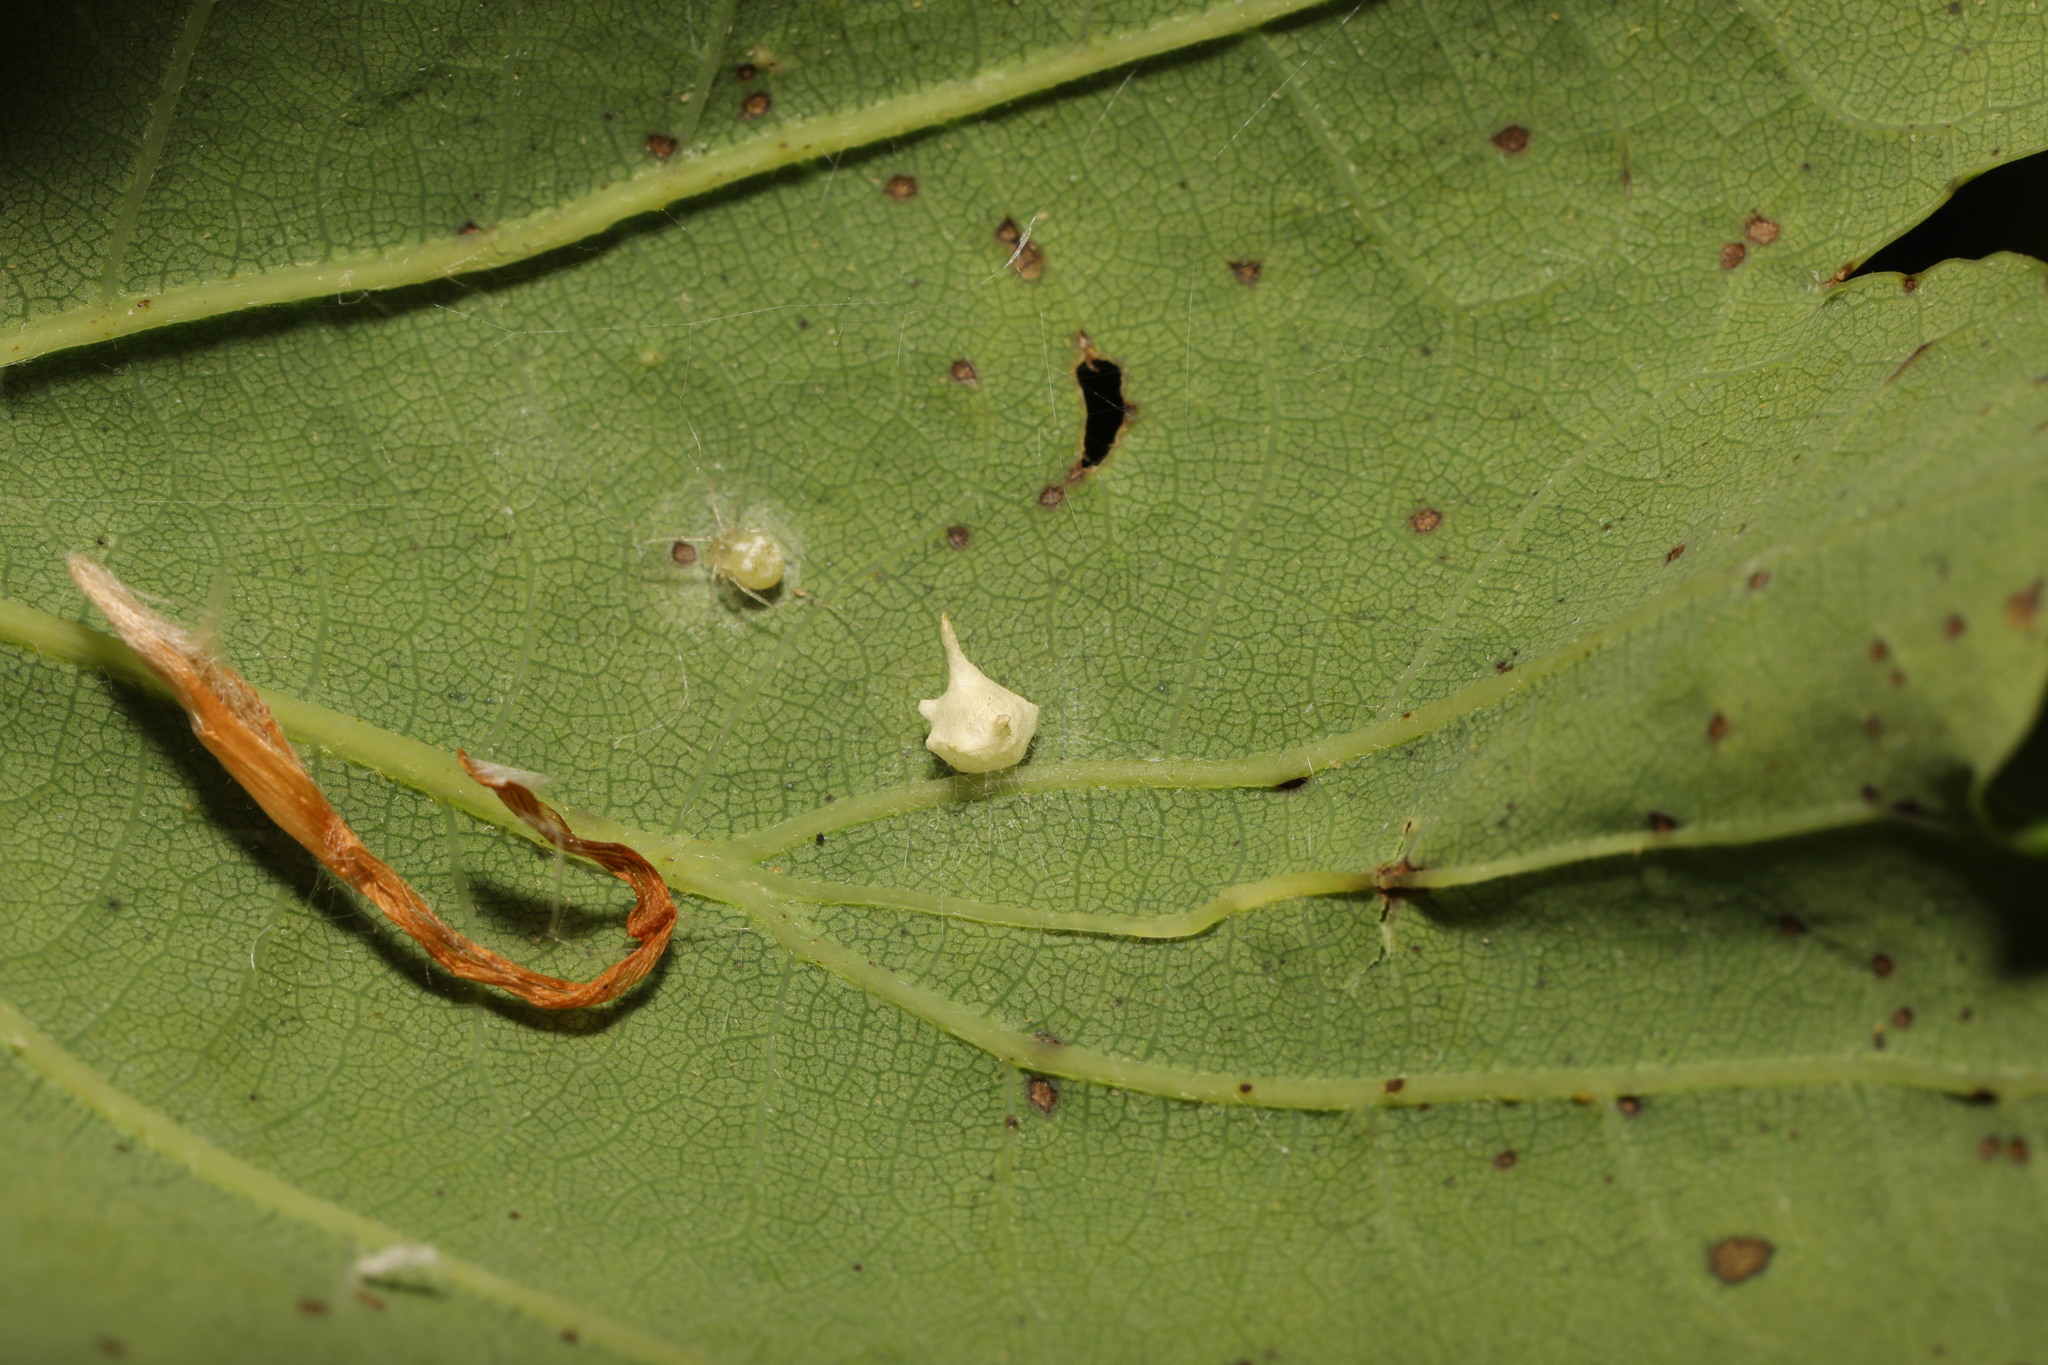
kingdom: Animalia
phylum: Arthropoda
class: Arachnida
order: Araneae
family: Theridiidae
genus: Paidiscura
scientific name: Paidiscura pallens
